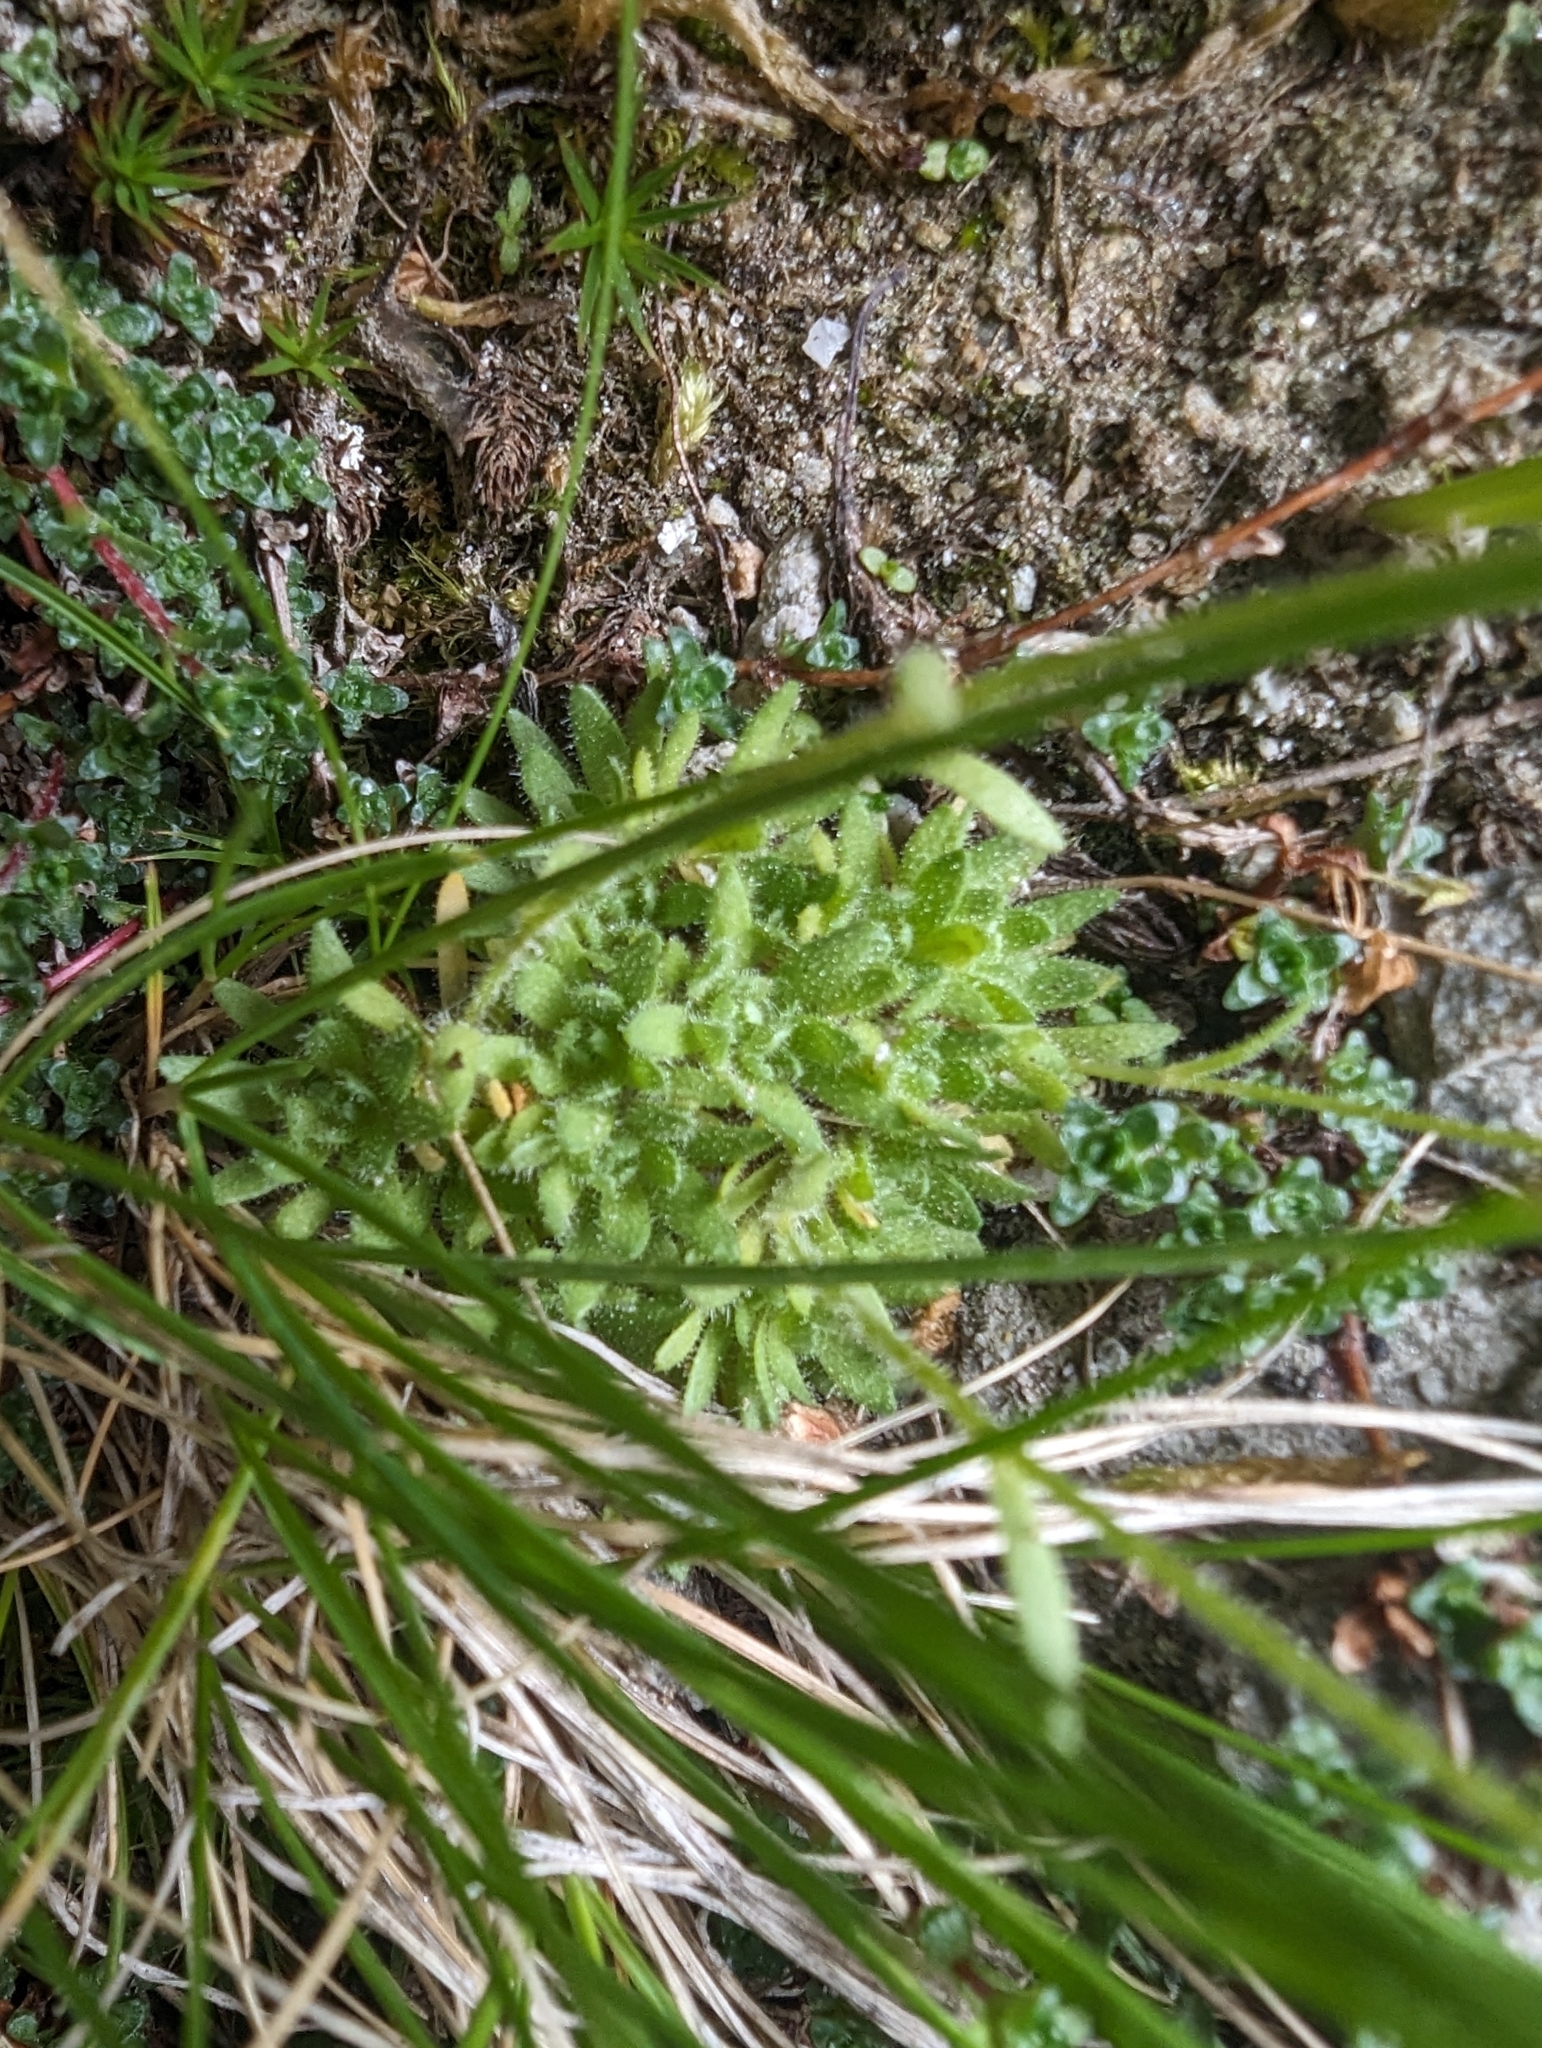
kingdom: Plantae
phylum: Tracheophyta
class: Magnoliopsida
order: Saxifragales
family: Saxifragaceae
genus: Saxifraga
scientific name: Saxifraga muscoides
